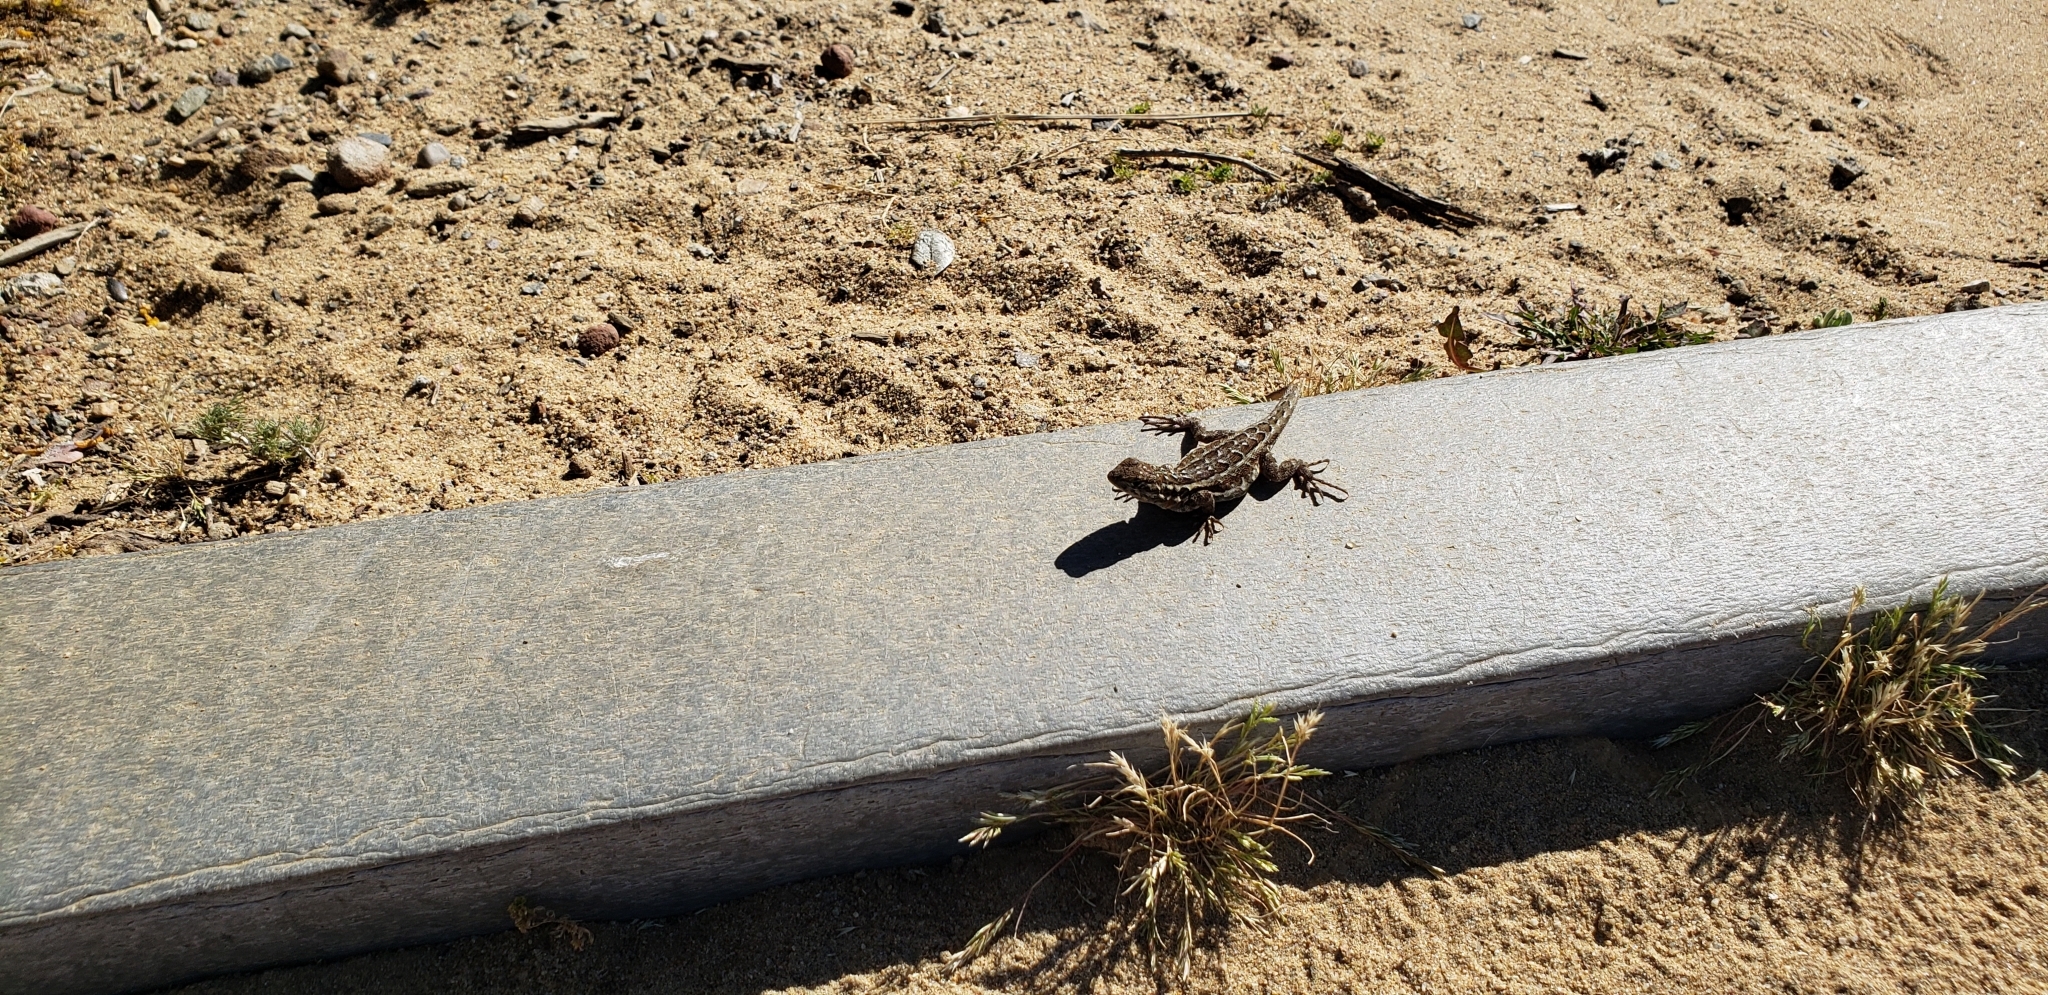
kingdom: Animalia
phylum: Chordata
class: Squamata
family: Phrynosomatidae
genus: Uta
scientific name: Uta stansburiana
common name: Side-blotched lizard
